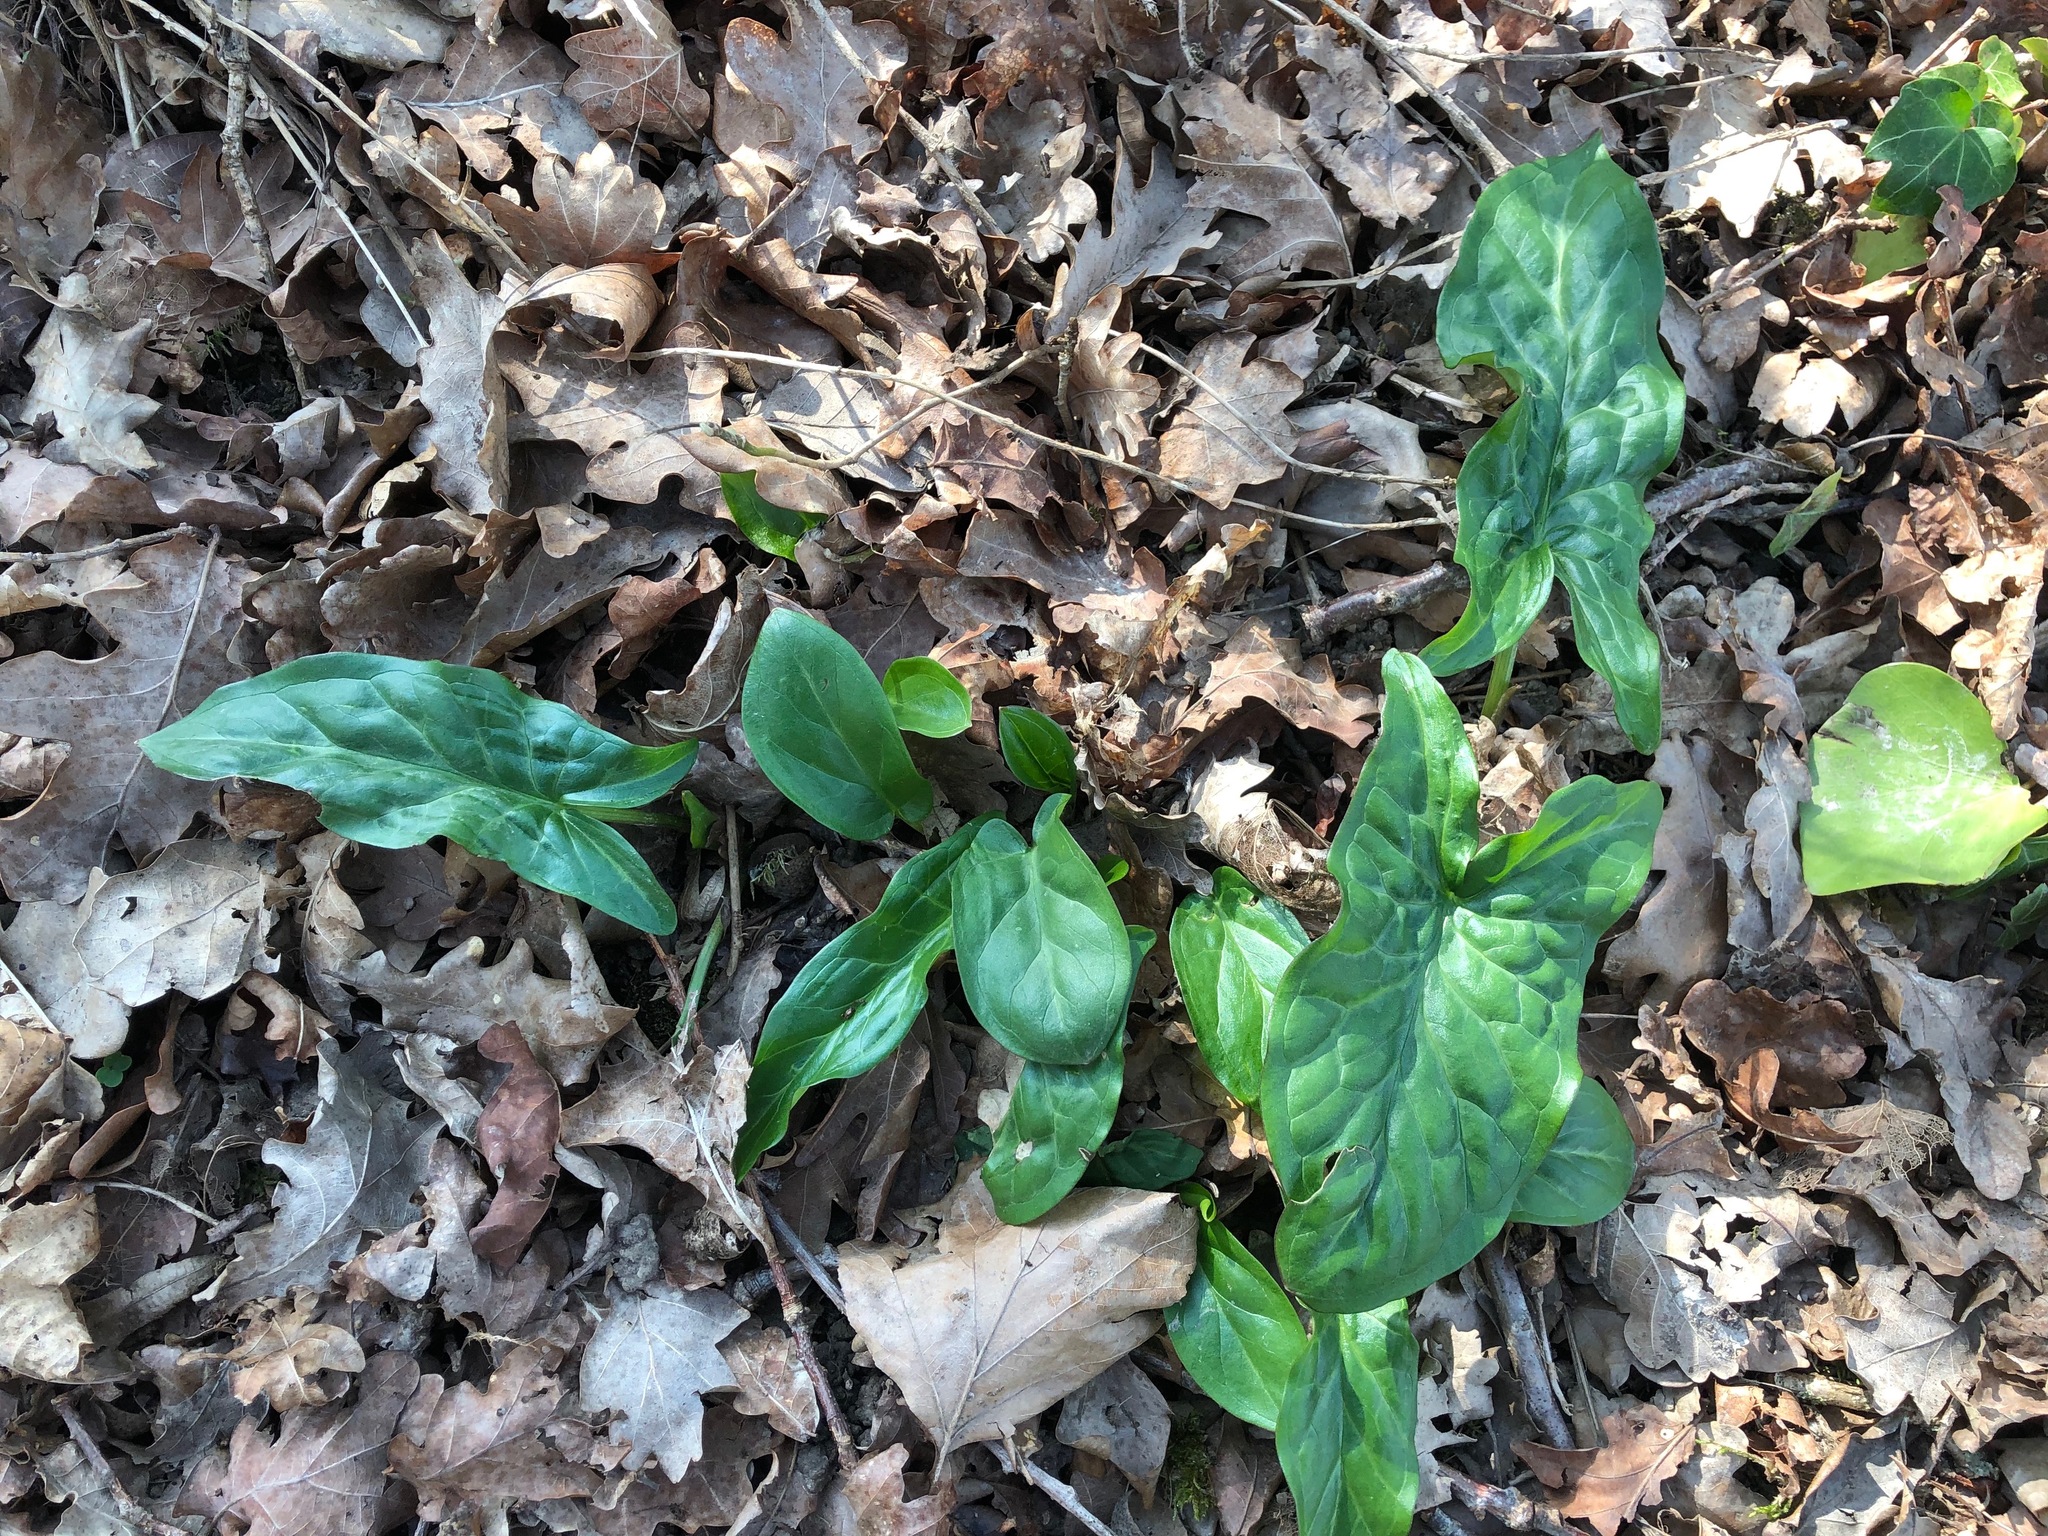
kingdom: Plantae
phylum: Tracheophyta
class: Liliopsida
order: Alismatales
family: Araceae
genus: Arum
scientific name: Arum maculatum
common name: Lords-and-ladies
